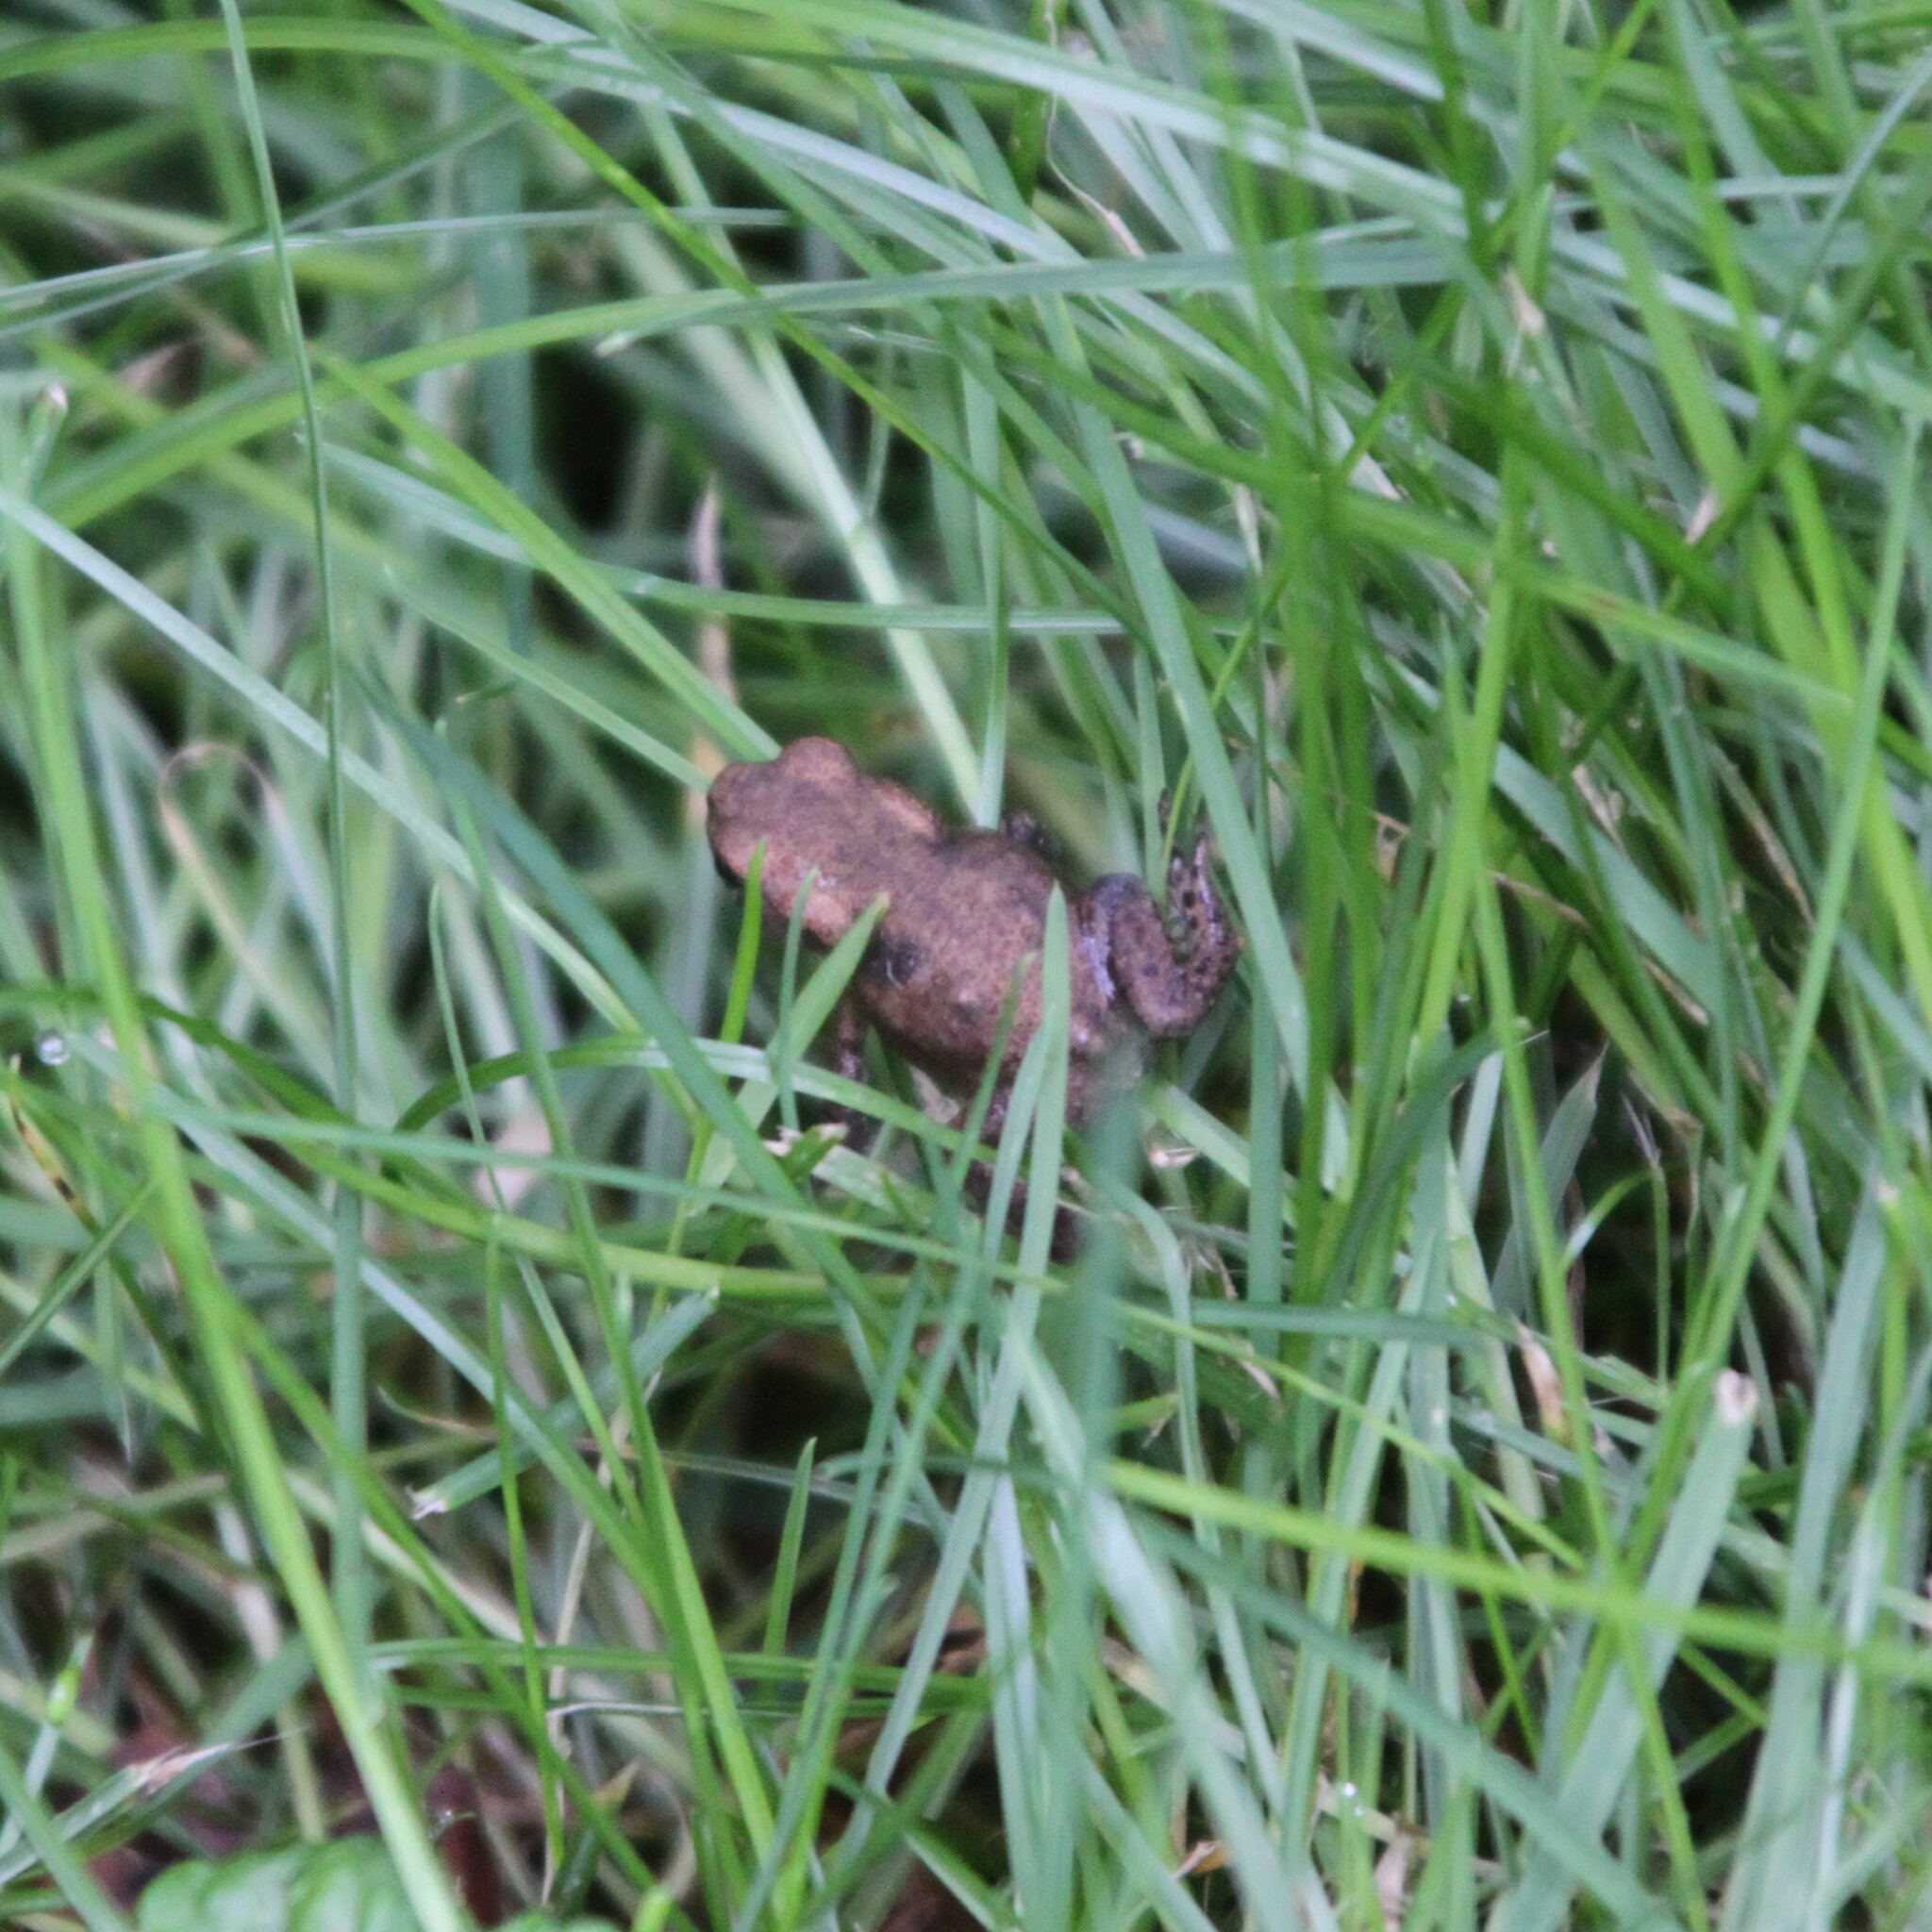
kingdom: Animalia
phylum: Chordata
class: Amphibia
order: Anura
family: Bufonidae
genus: Bufo
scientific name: Bufo bufo
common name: Common toad
